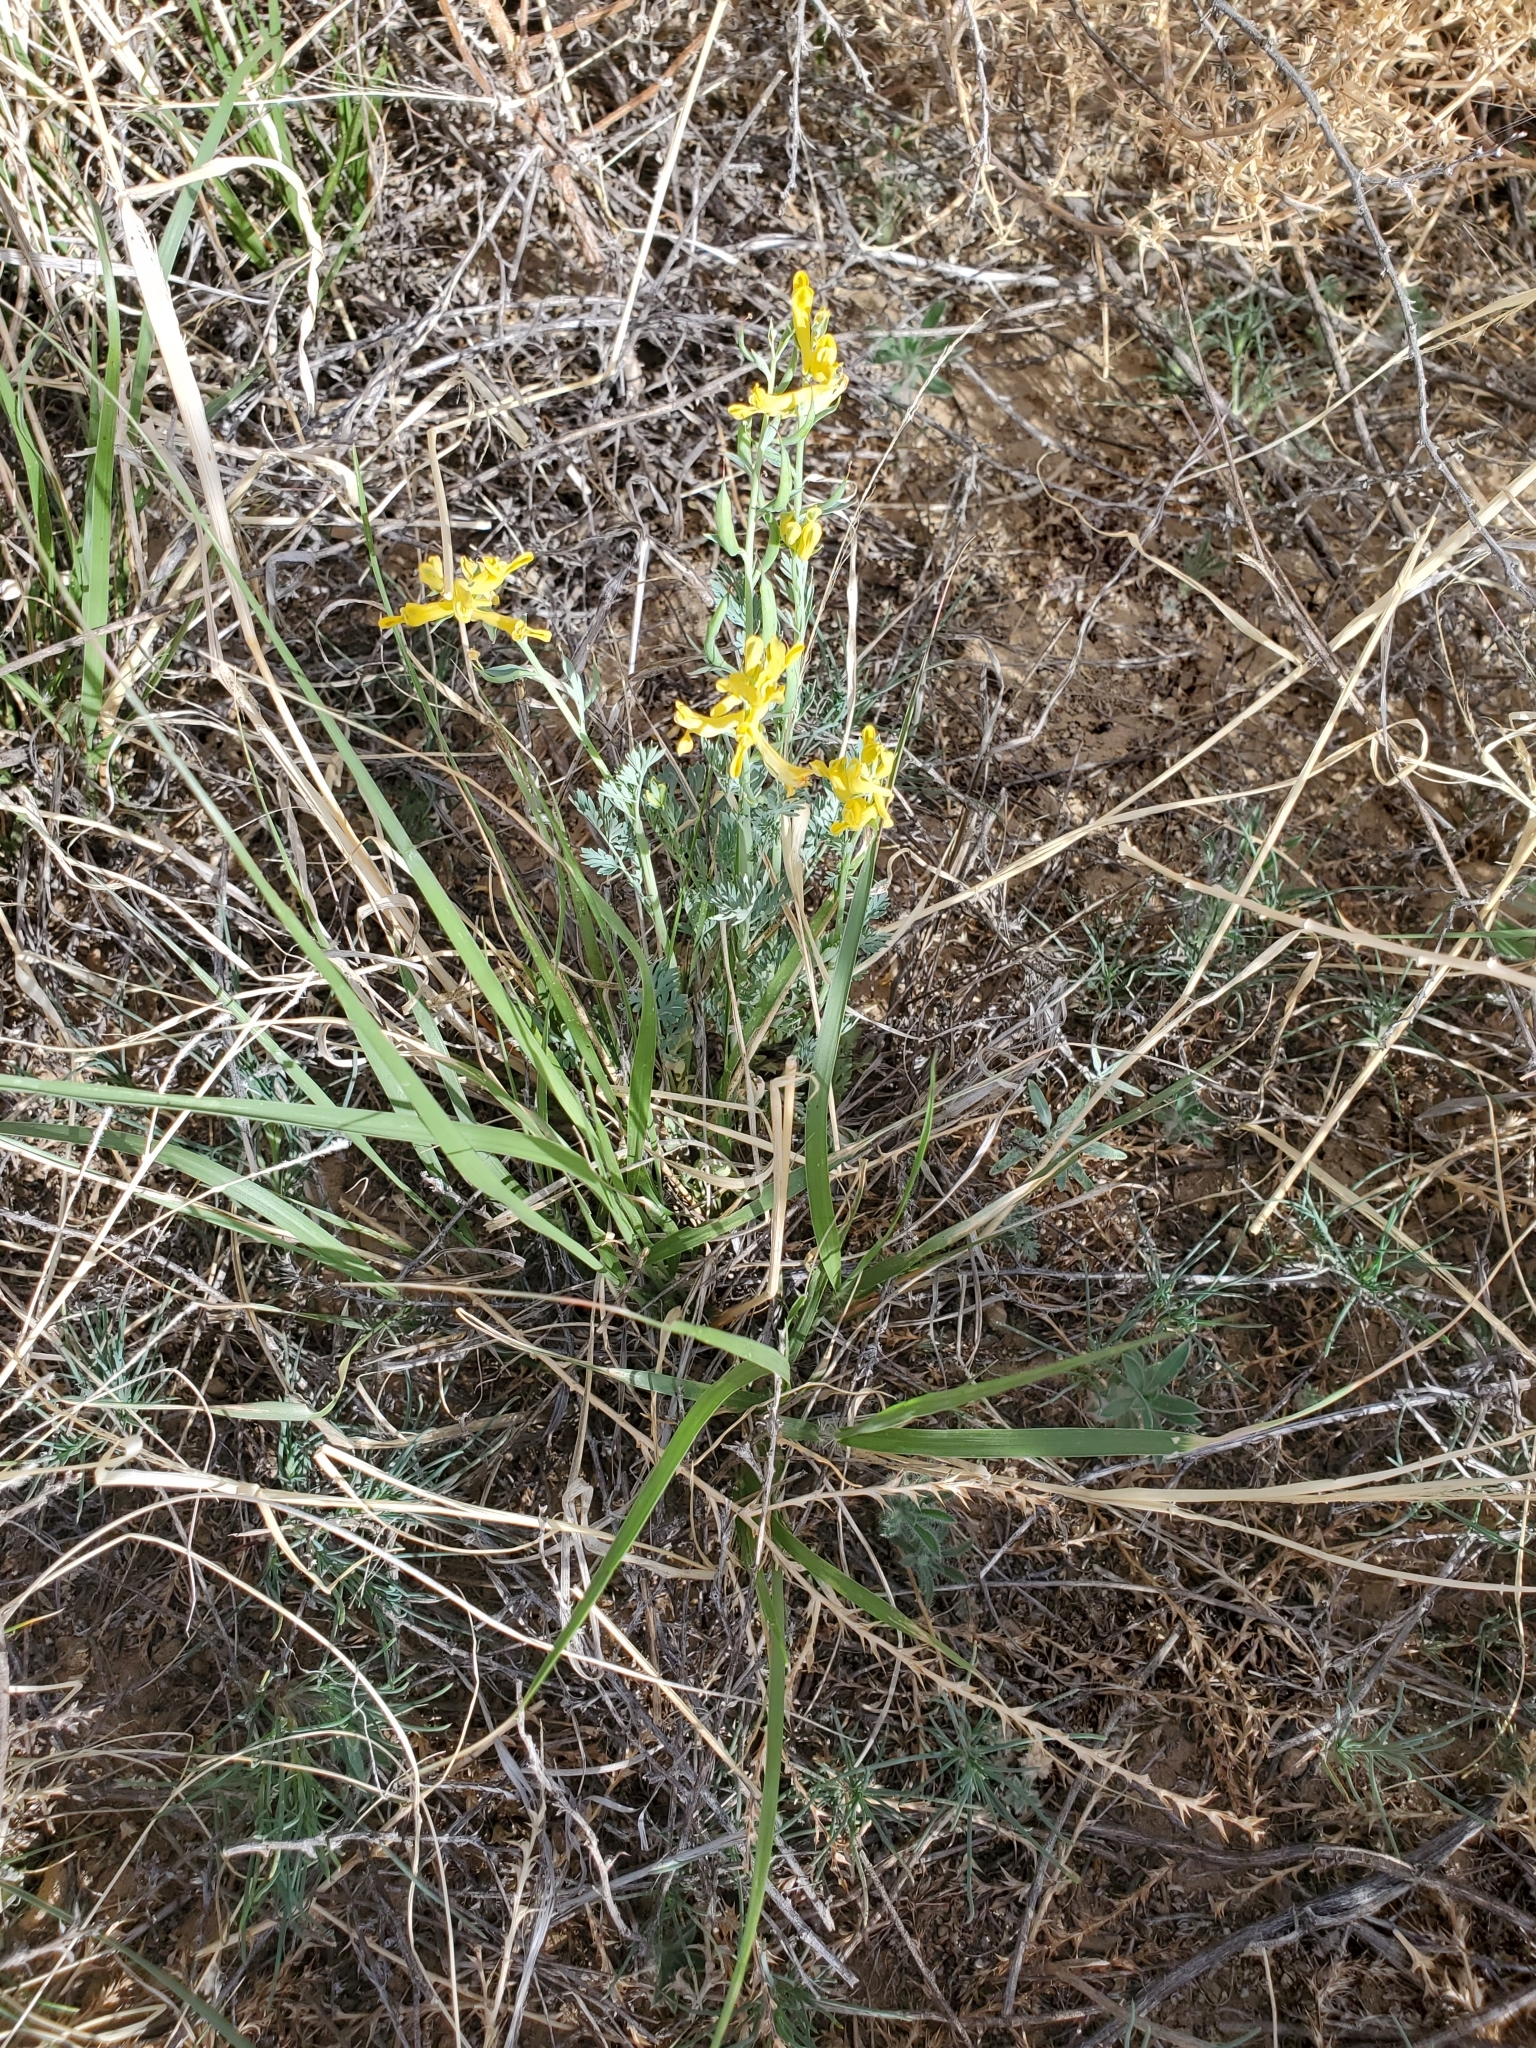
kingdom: Plantae
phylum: Tracheophyta
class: Magnoliopsida
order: Ranunculales
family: Papaveraceae
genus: Corydalis
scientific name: Corydalis aurea
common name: Golden corydalis
